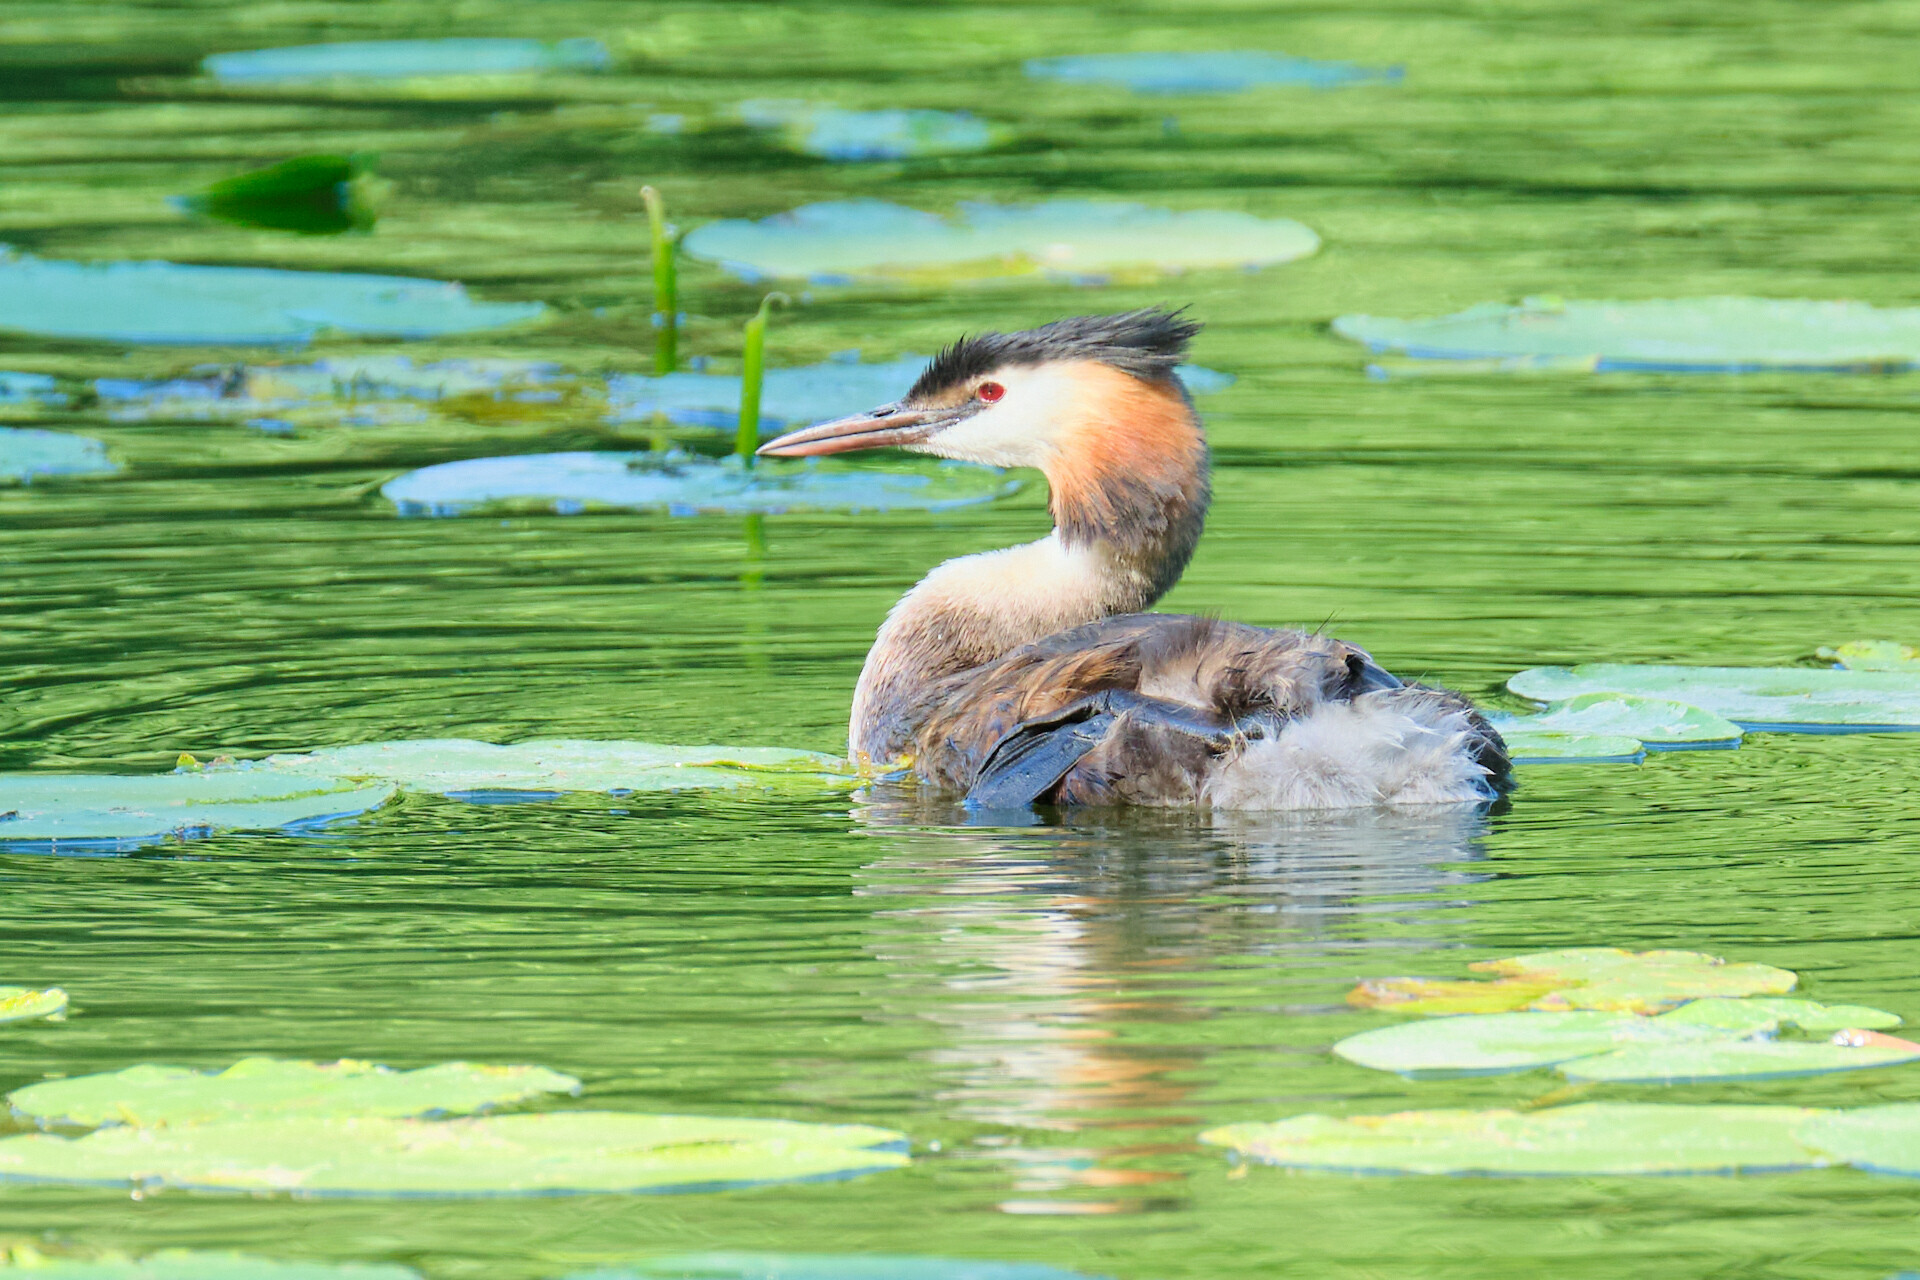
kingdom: Animalia
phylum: Chordata
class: Aves
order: Podicipediformes
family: Podicipedidae
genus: Podiceps
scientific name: Podiceps cristatus
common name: Great crested grebe
